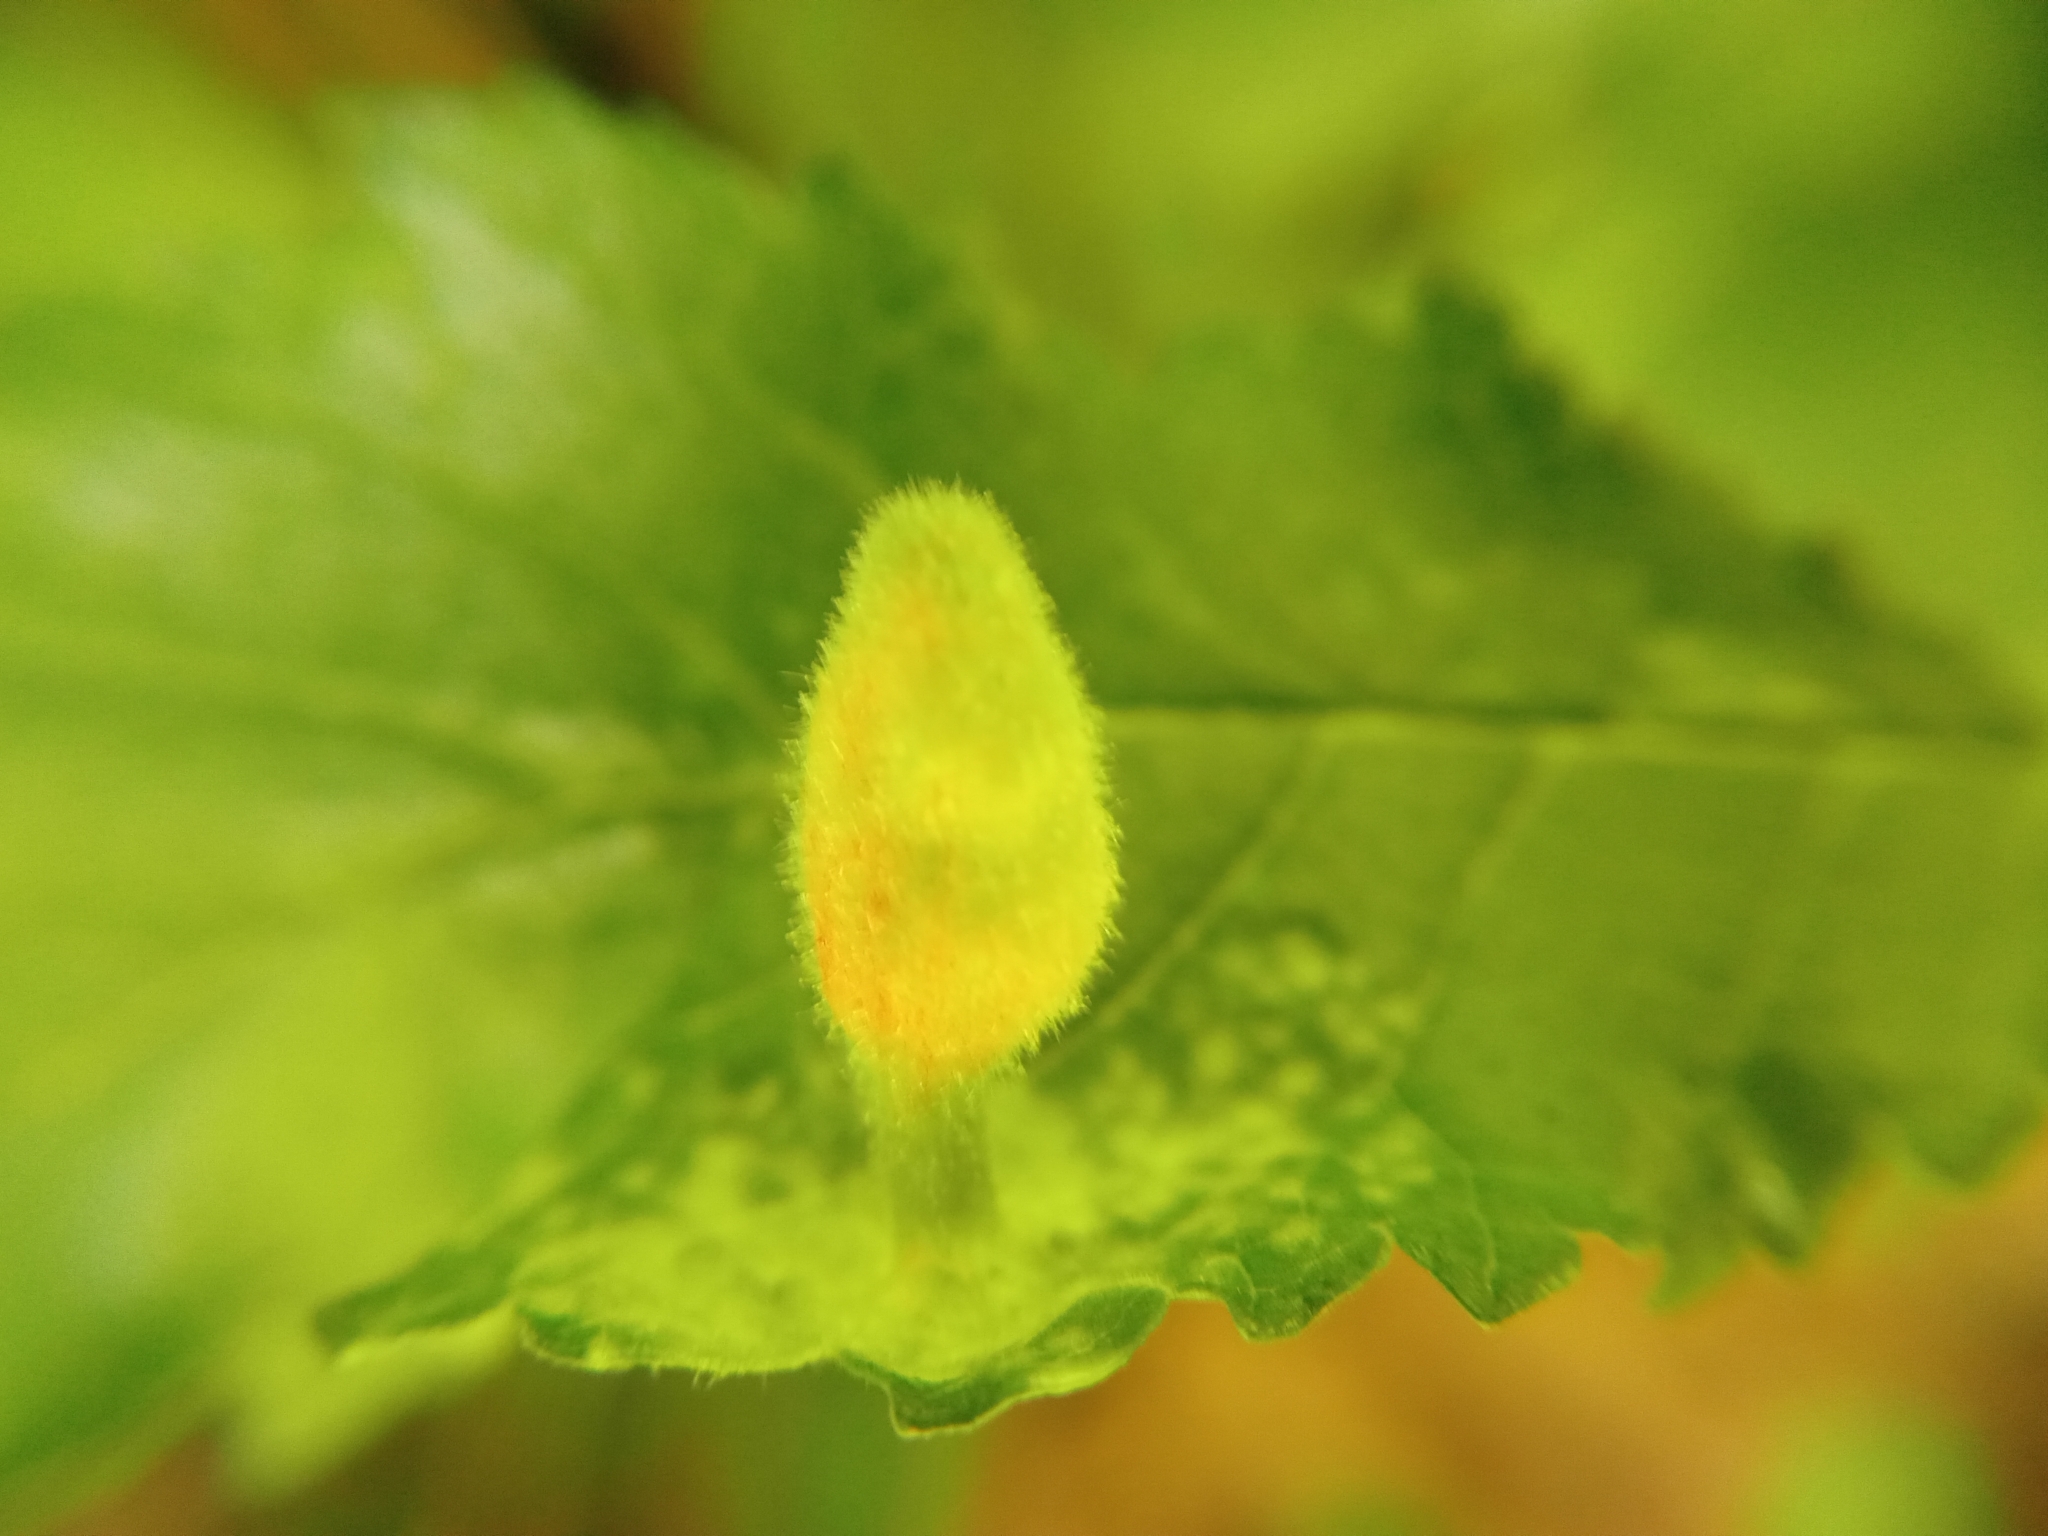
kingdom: Animalia
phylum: Arthropoda
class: Insecta
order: Hemiptera
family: Aphididae
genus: Tetraneura
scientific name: Tetraneura nigriabdominalis
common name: Aphid
